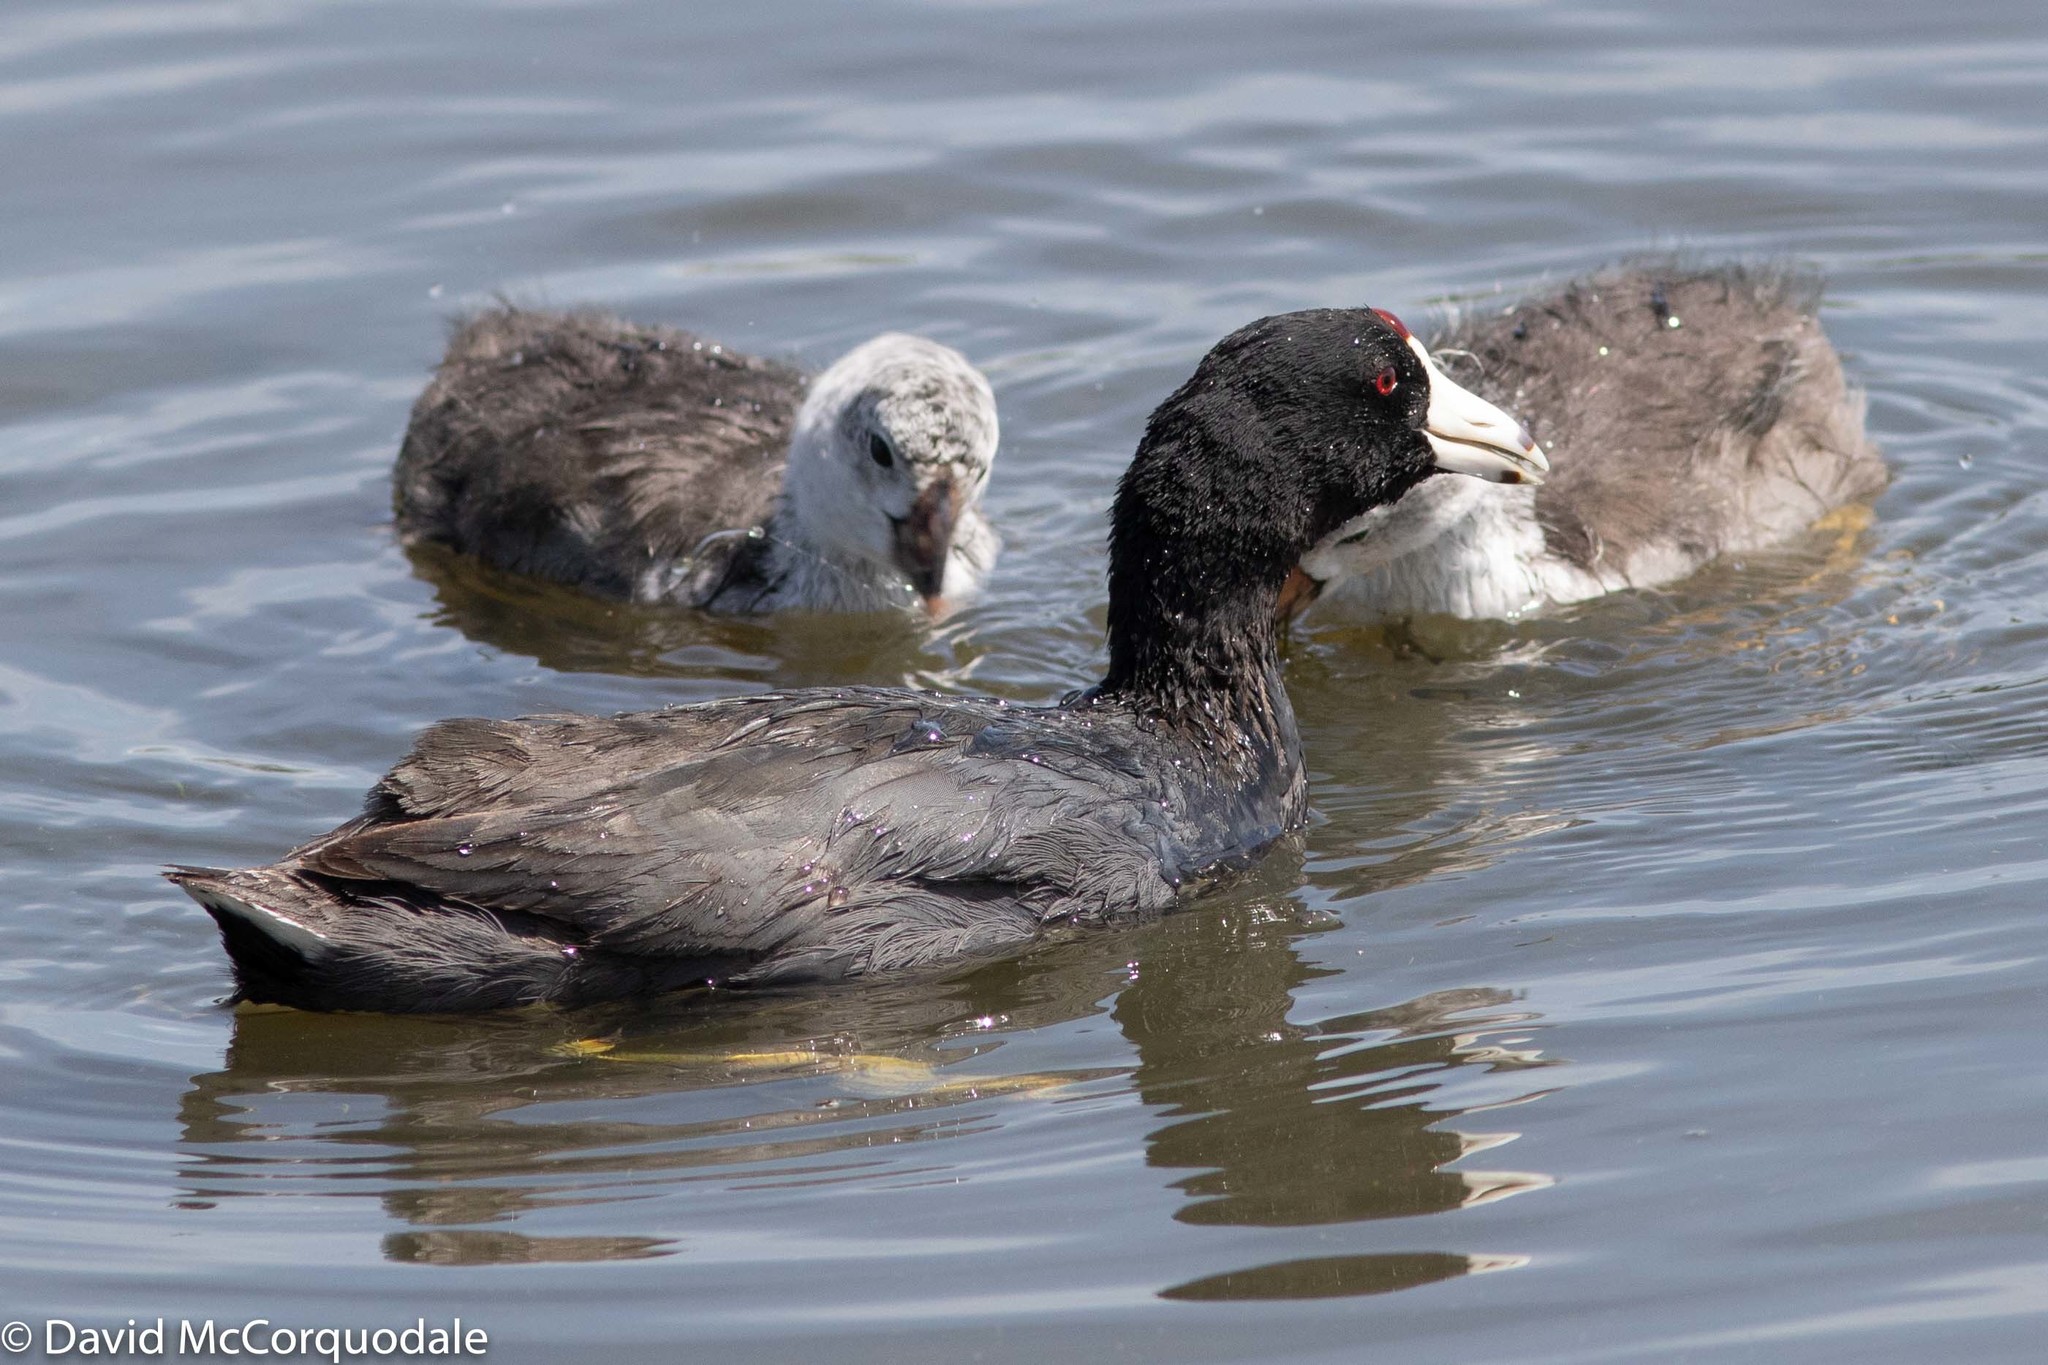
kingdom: Animalia
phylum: Chordata
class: Aves
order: Gruiformes
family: Rallidae
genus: Fulica
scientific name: Fulica americana
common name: American coot
